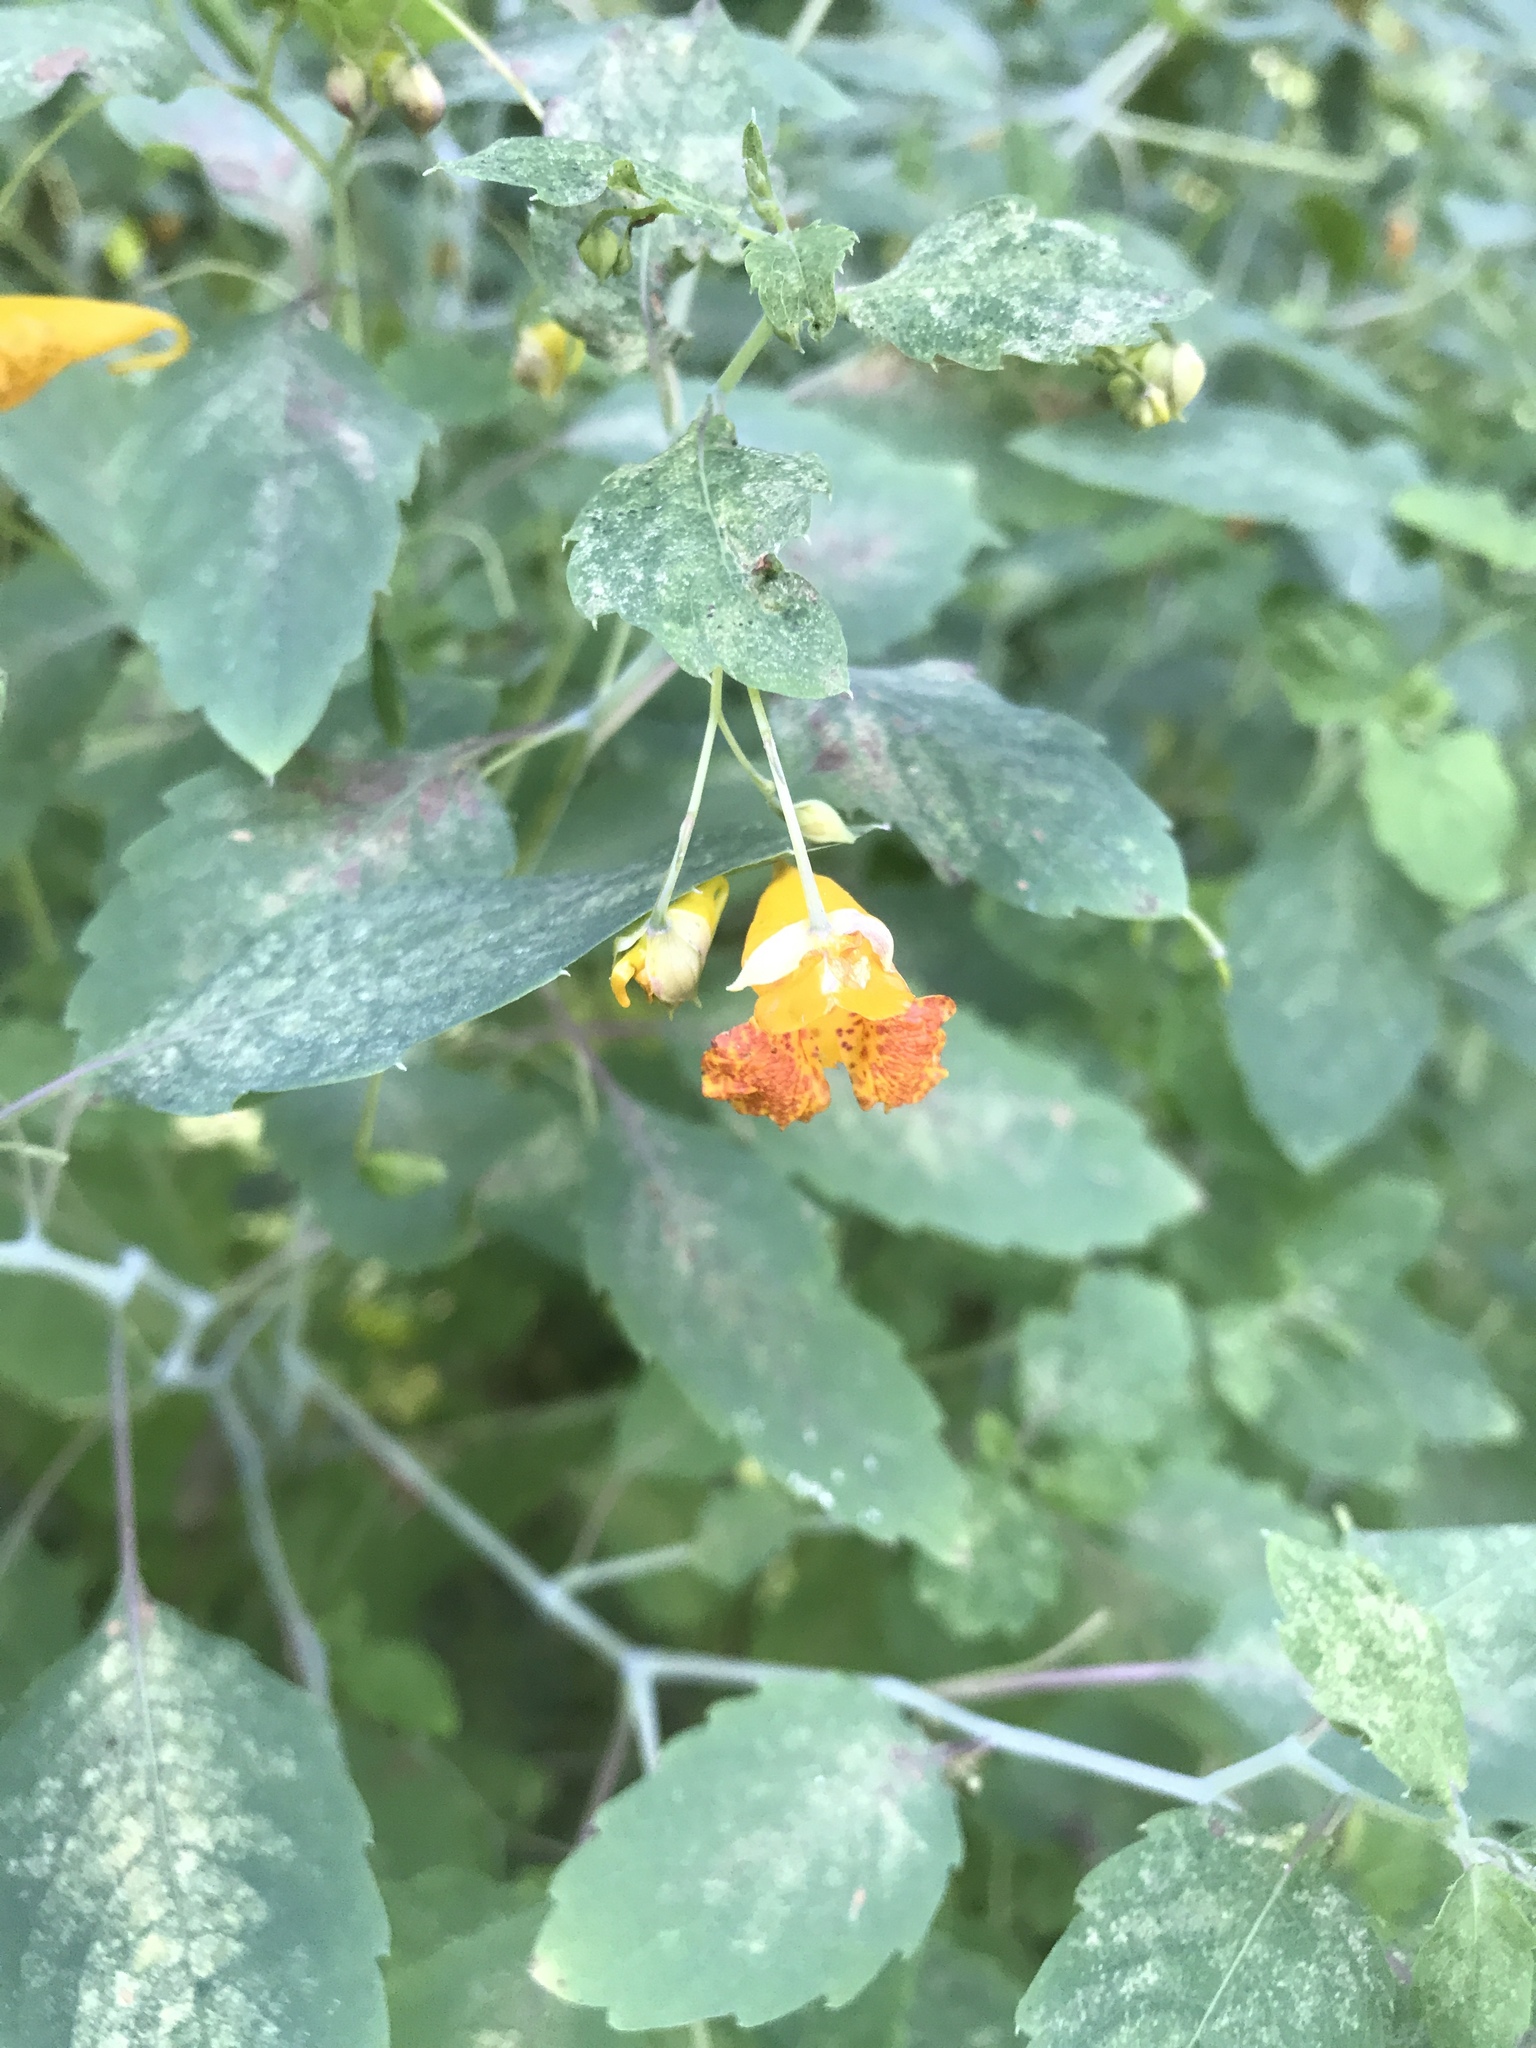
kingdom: Plantae
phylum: Tracheophyta
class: Magnoliopsida
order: Ericales
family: Balsaminaceae
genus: Impatiens
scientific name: Impatiens capensis
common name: Orange balsam
